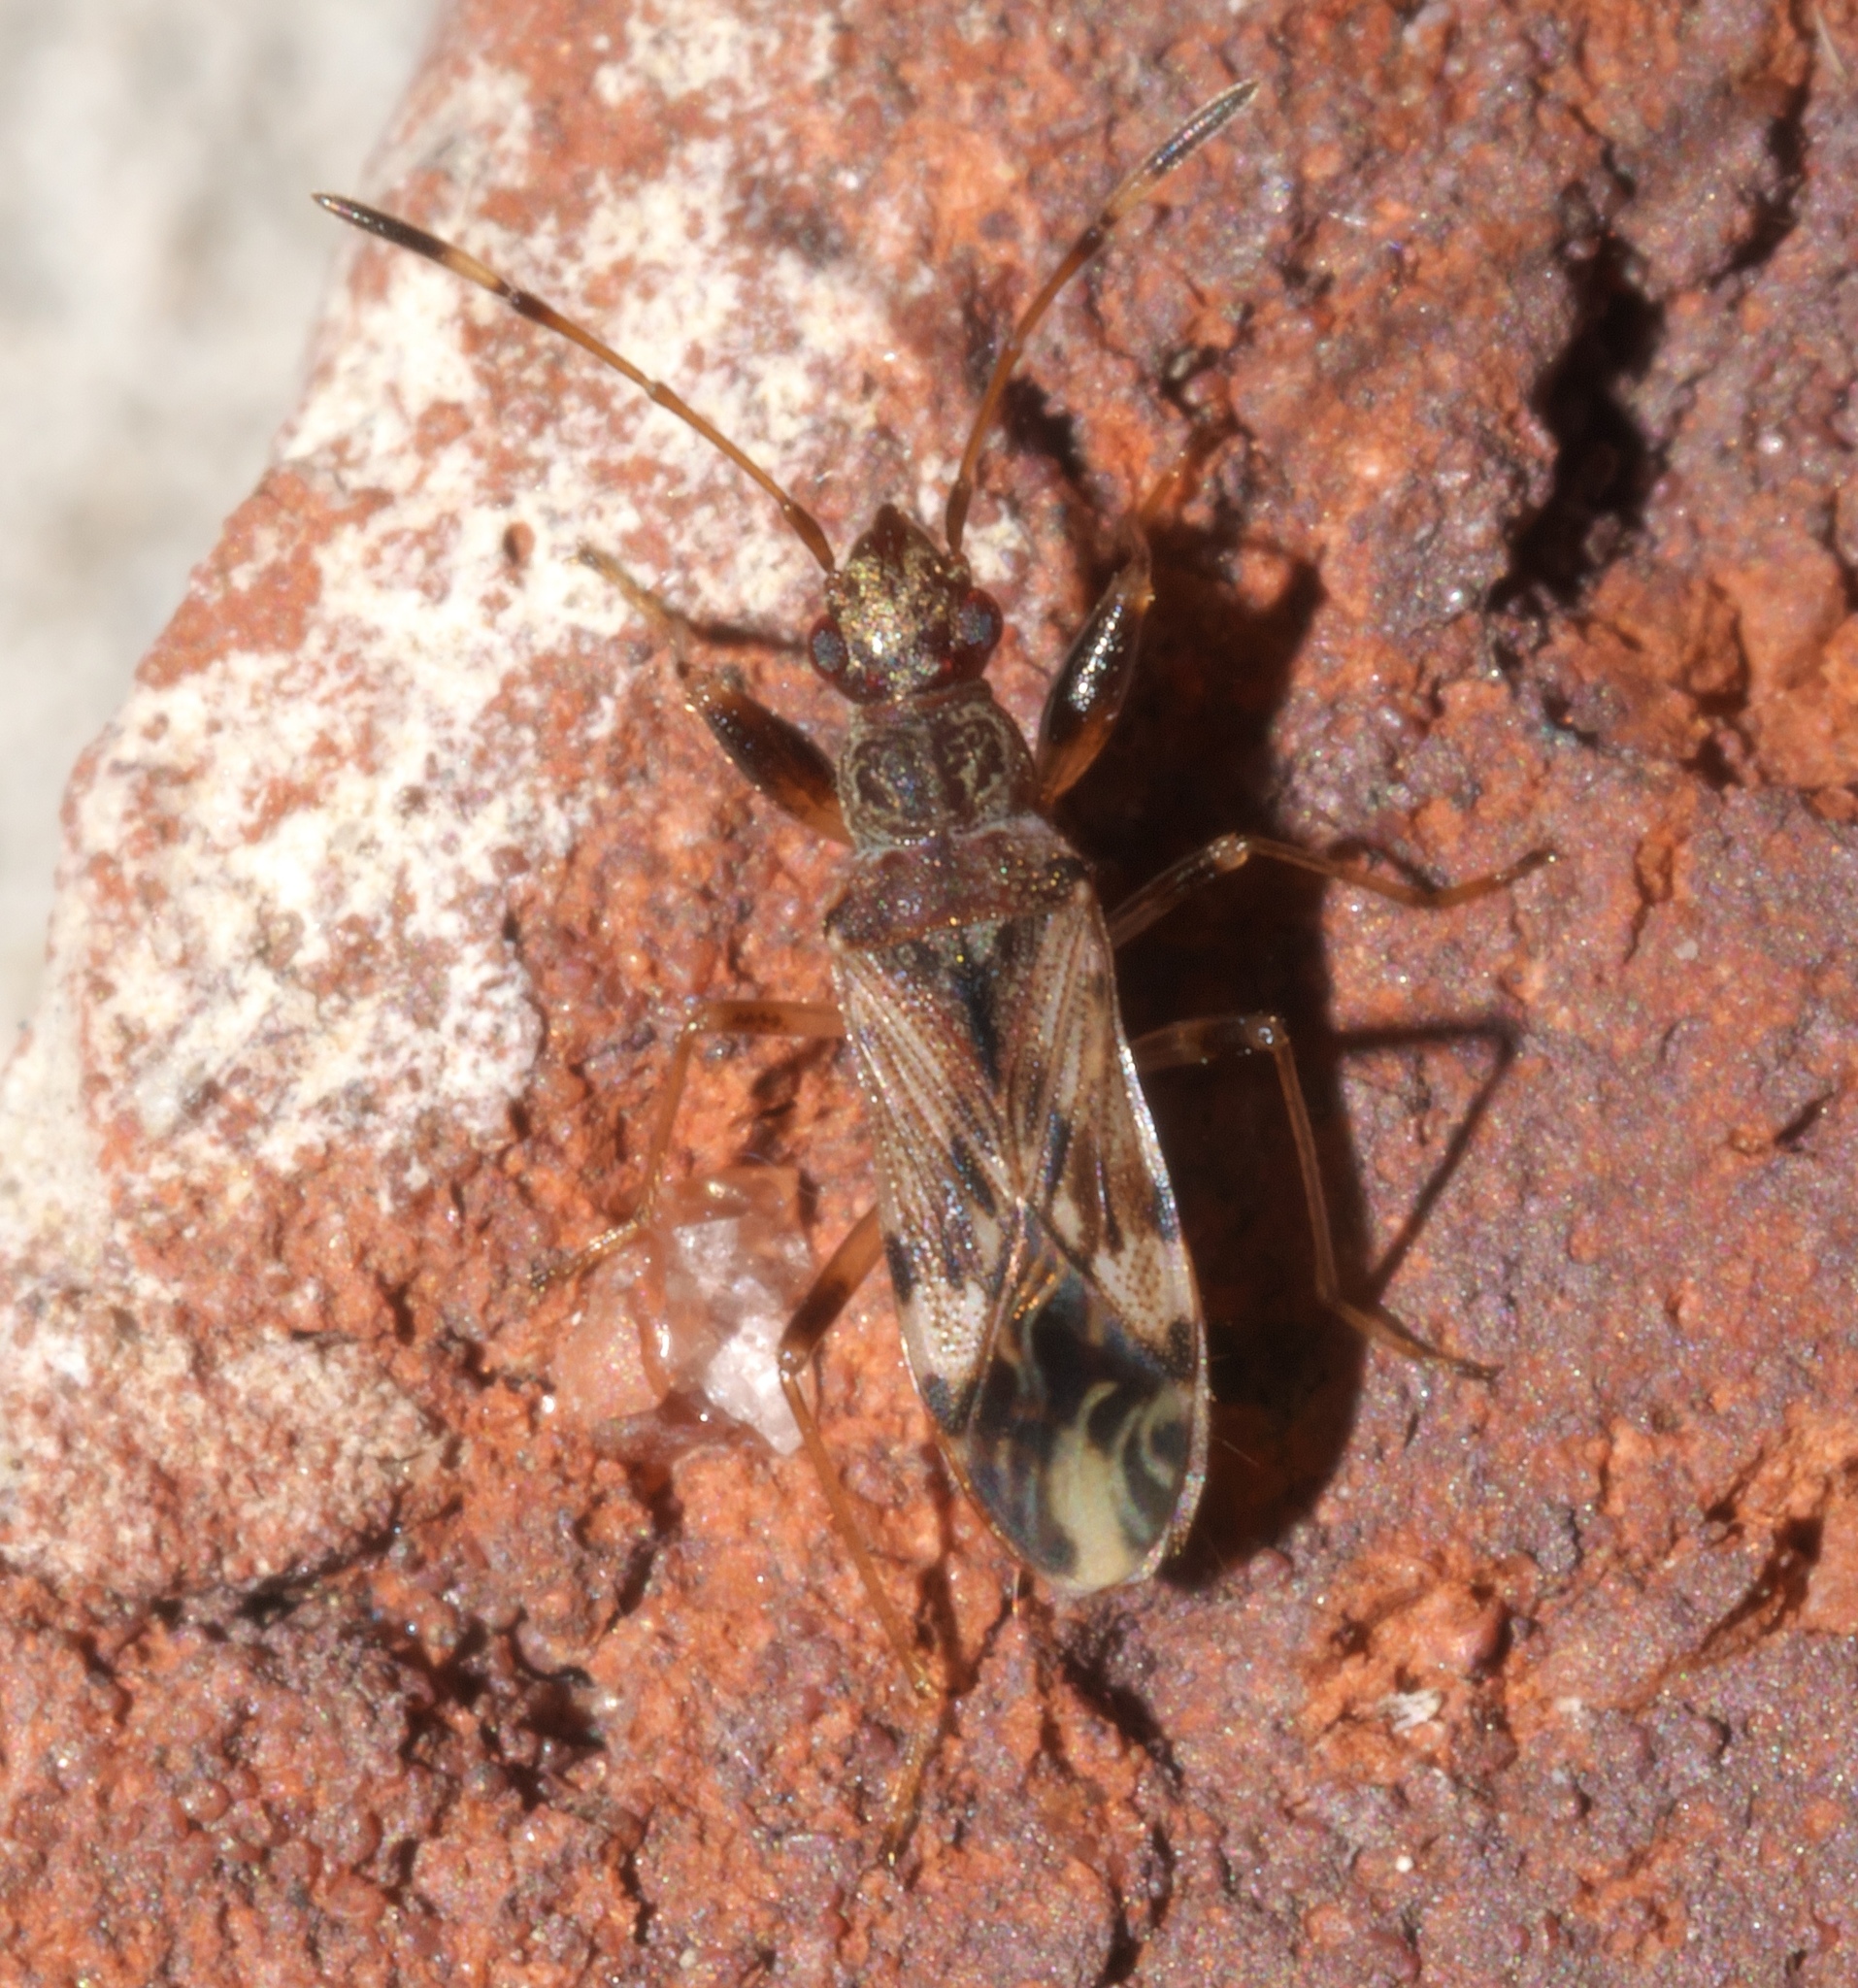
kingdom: Animalia
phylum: Arthropoda
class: Insecta
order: Hemiptera
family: Rhyparochromidae
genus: Neopamera
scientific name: Neopamera albocincta
